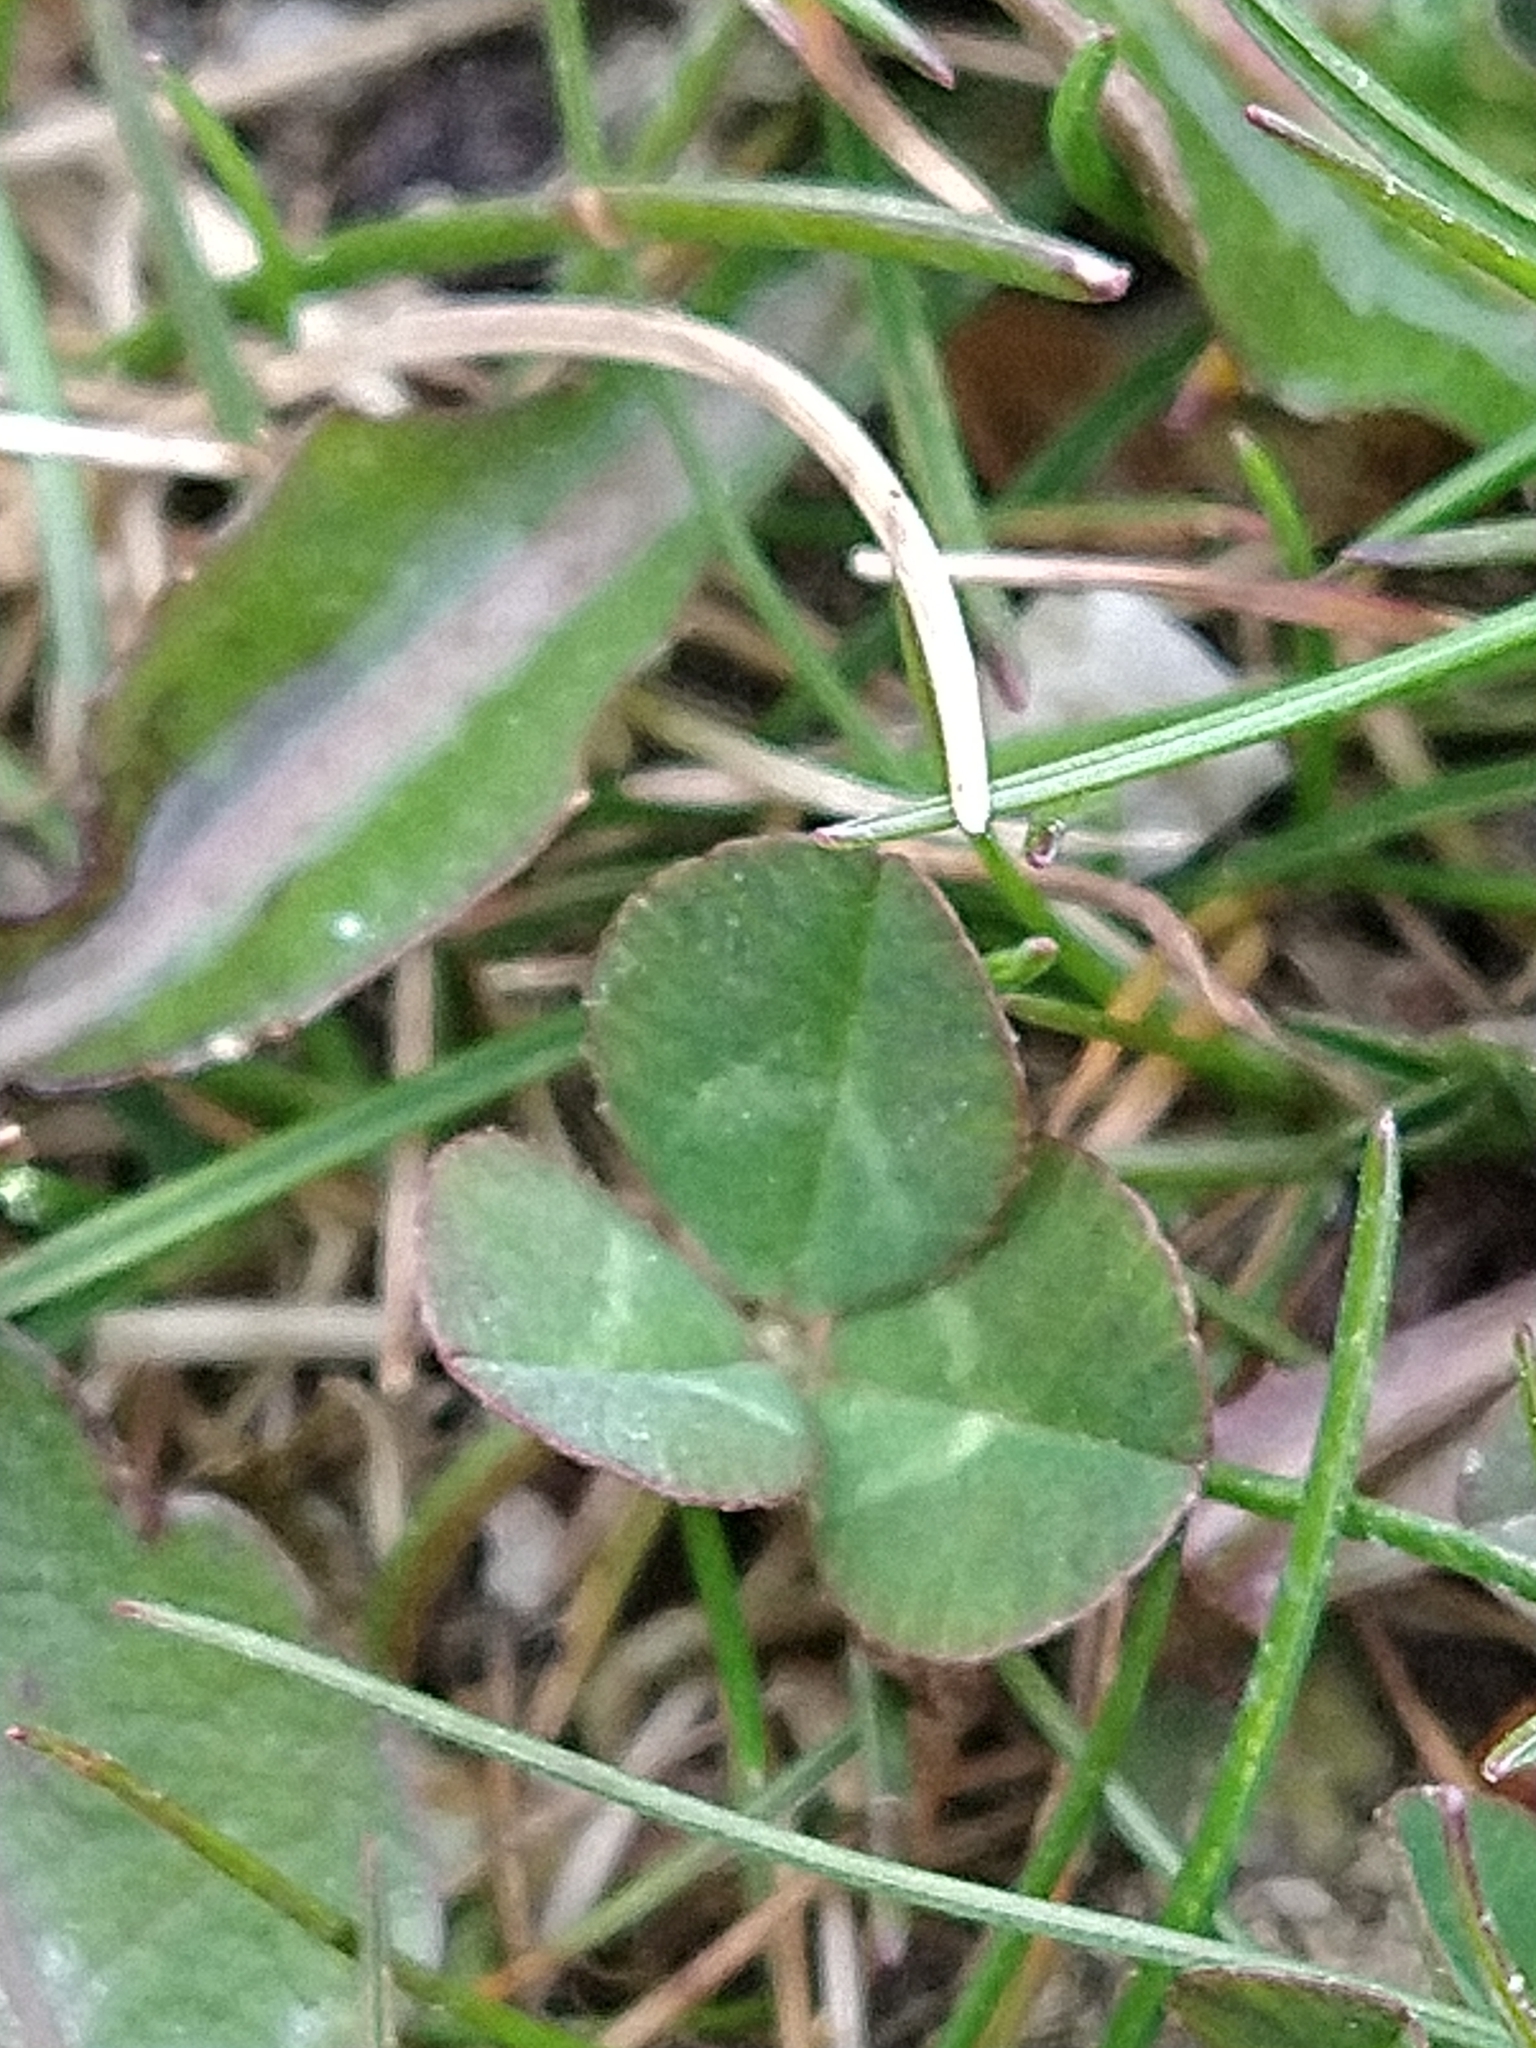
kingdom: Plantae
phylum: Tracheophyta
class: Magnoliopsida
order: Fabales
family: Fabaceae
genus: Trifolium
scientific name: Trifolium repens
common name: White clover
